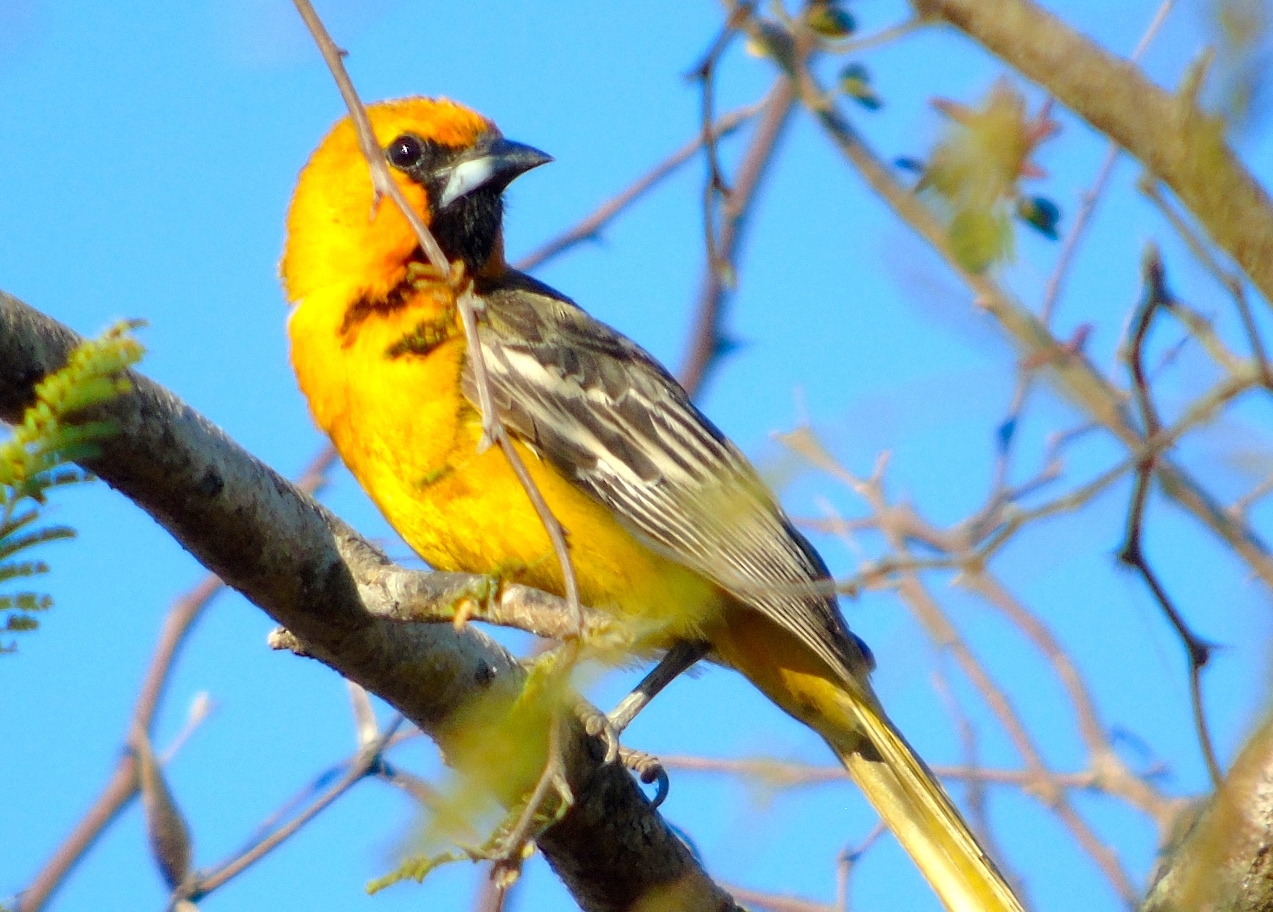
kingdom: Animalia
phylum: Chordata
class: Aves
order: Passeriformes
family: Icteridae
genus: Icterus
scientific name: Icterus pustulatus
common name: Streak-backed oriole
